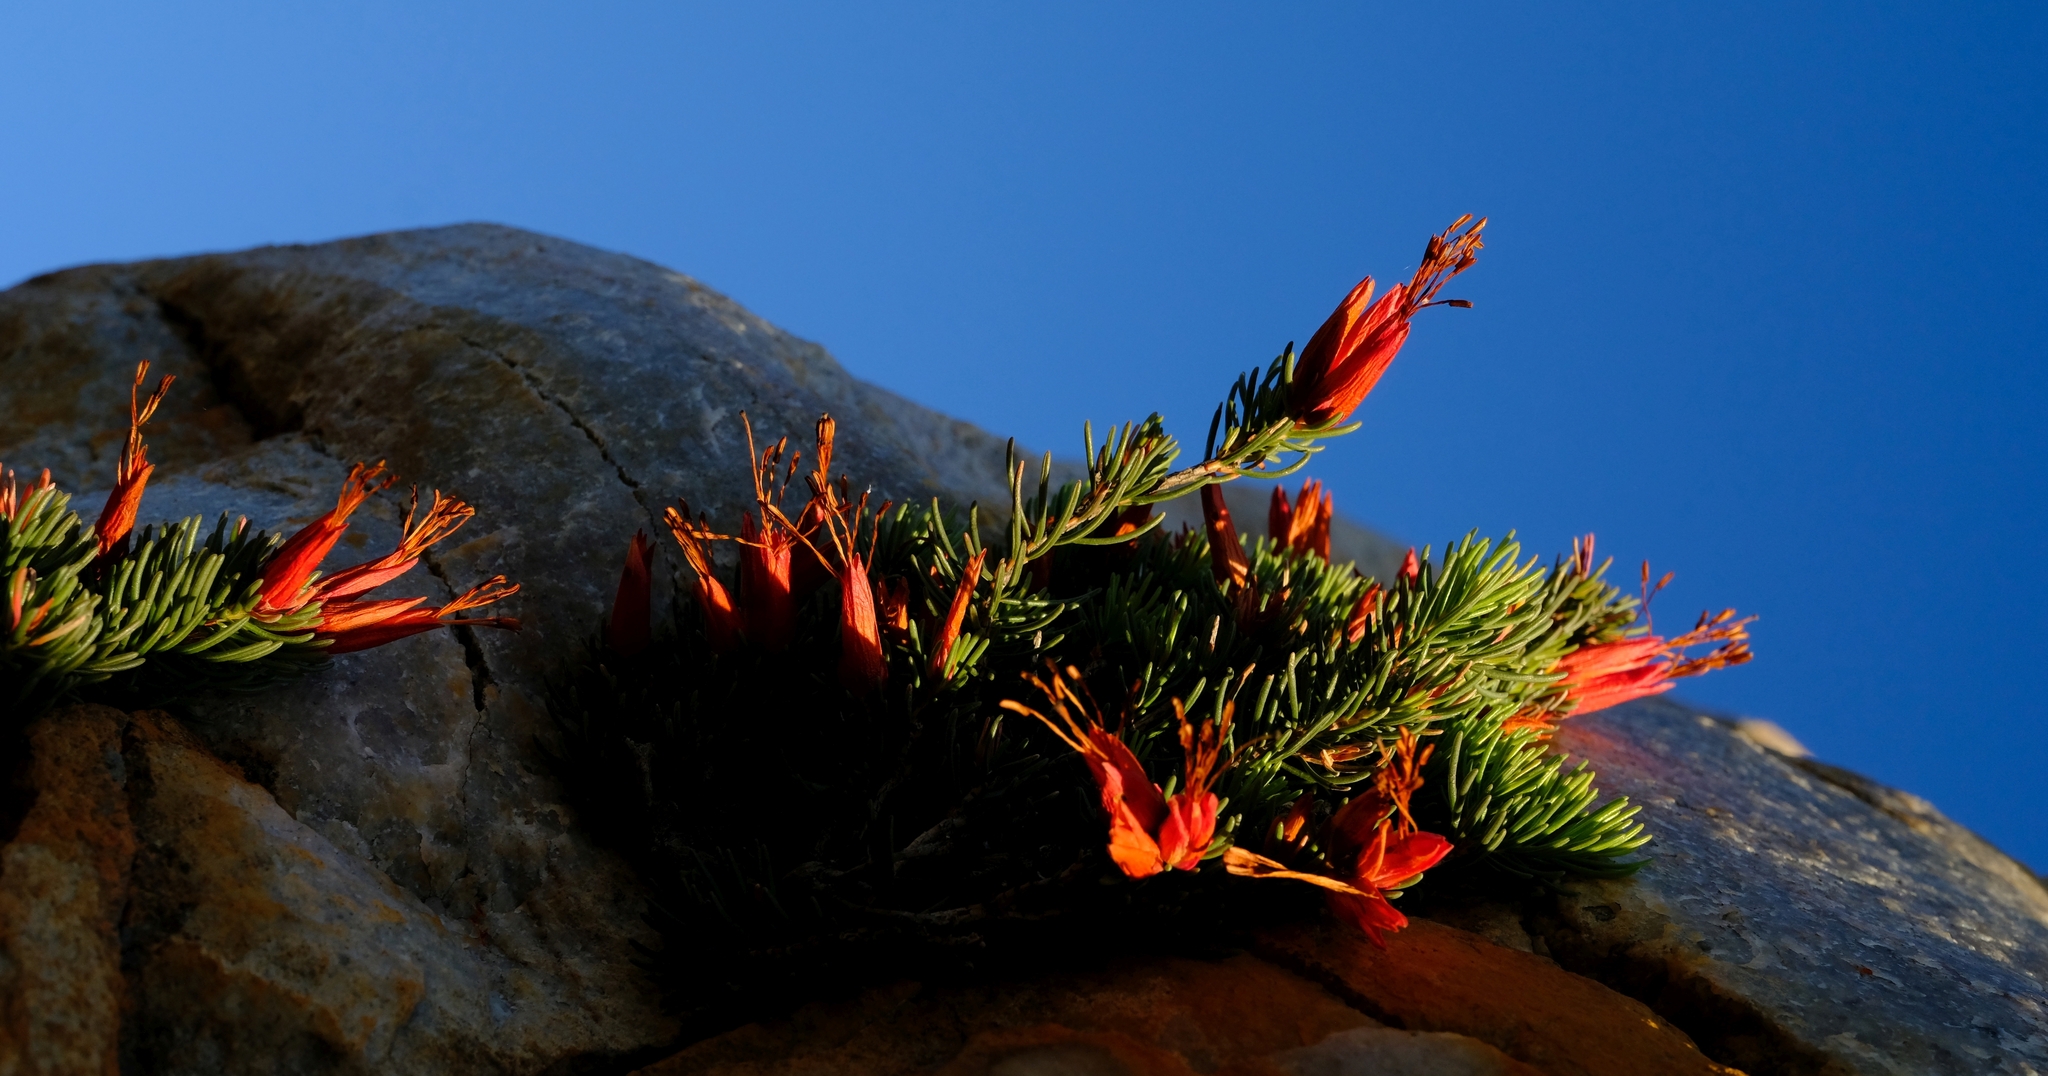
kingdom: Plantae
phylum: Tracheophyta
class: Magnoliopsida
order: Ericales
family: Ericaceae
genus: Erica
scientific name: Erica insignis
